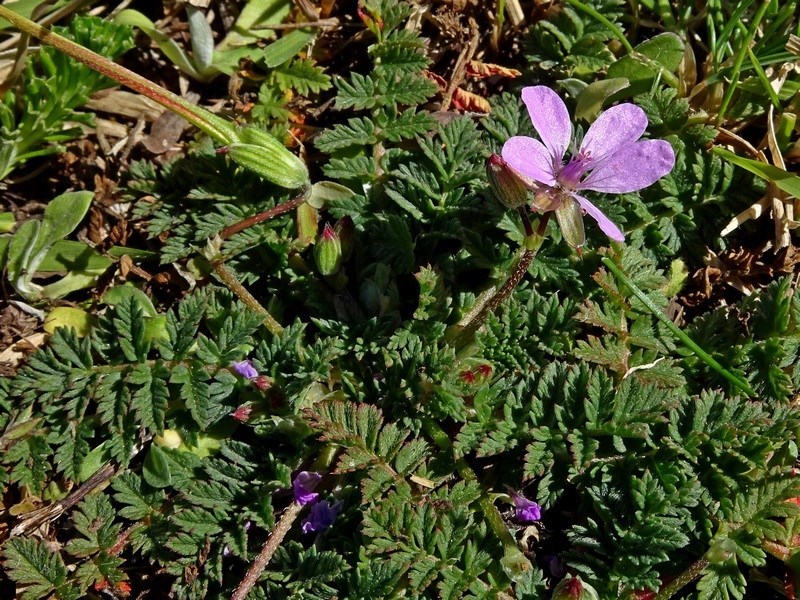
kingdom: Plantae
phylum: Tracheophyta
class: Magnoliopsida
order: Geraniales
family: Geraniaceae
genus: Erodium
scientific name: Erodium cicutarium
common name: Common stork's-bill
